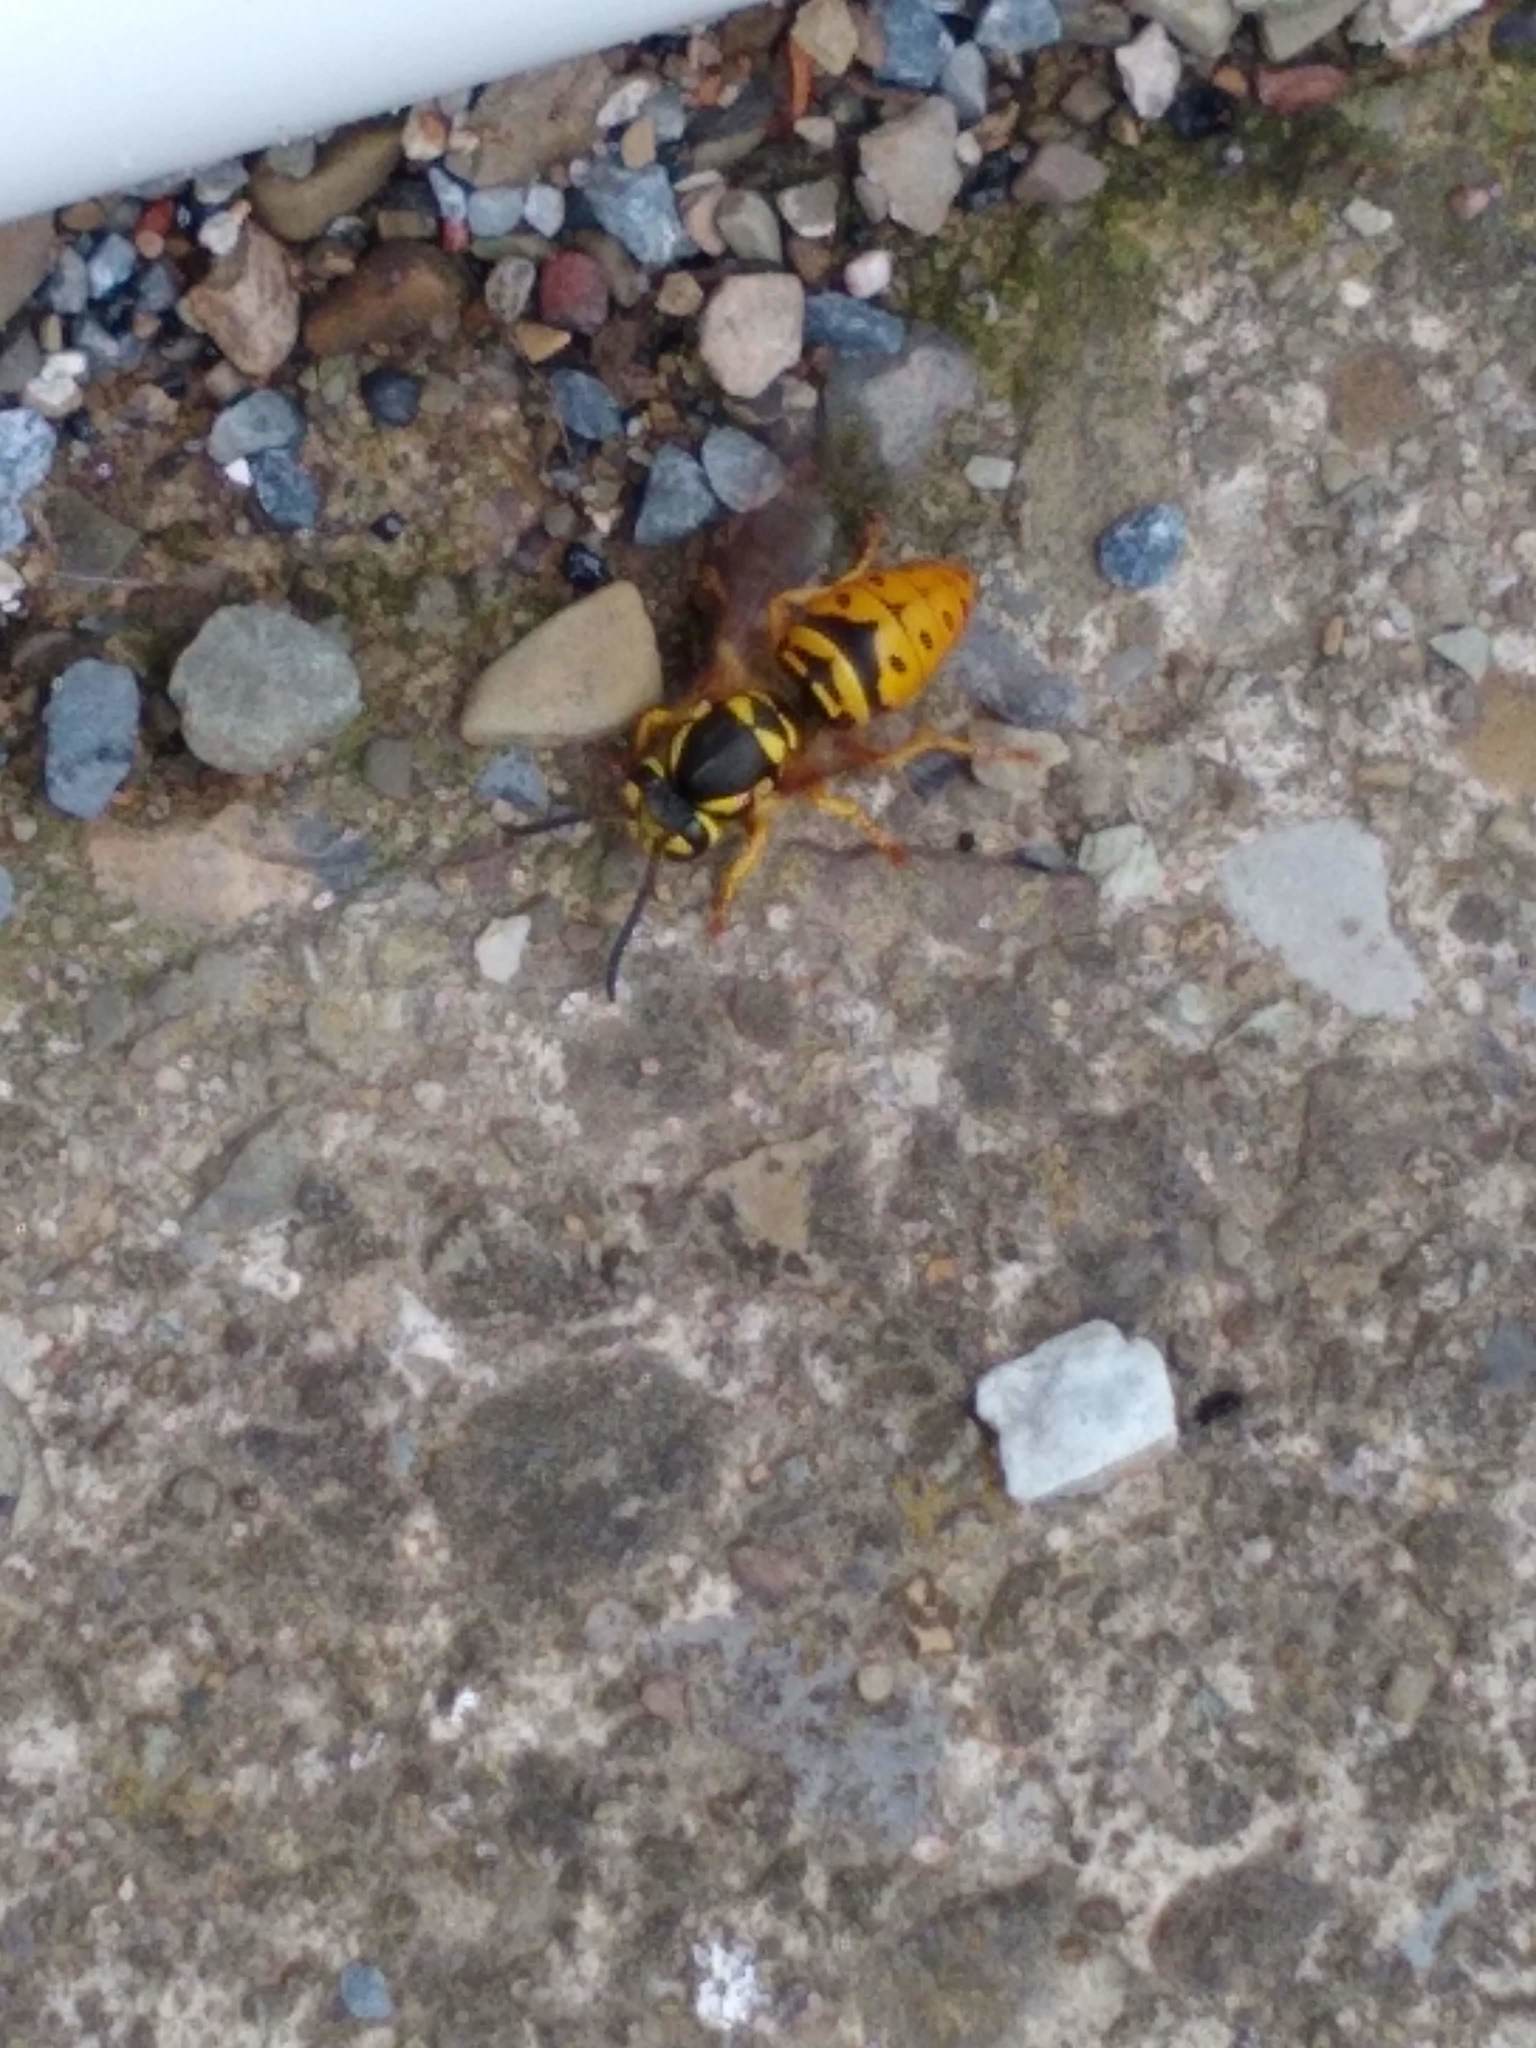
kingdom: Animalia
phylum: Arthropoda
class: Insecta
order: Hymenoptera
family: Vespidae
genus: Vespula
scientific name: Vespula maculifrons
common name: Eastern yellowjacket
